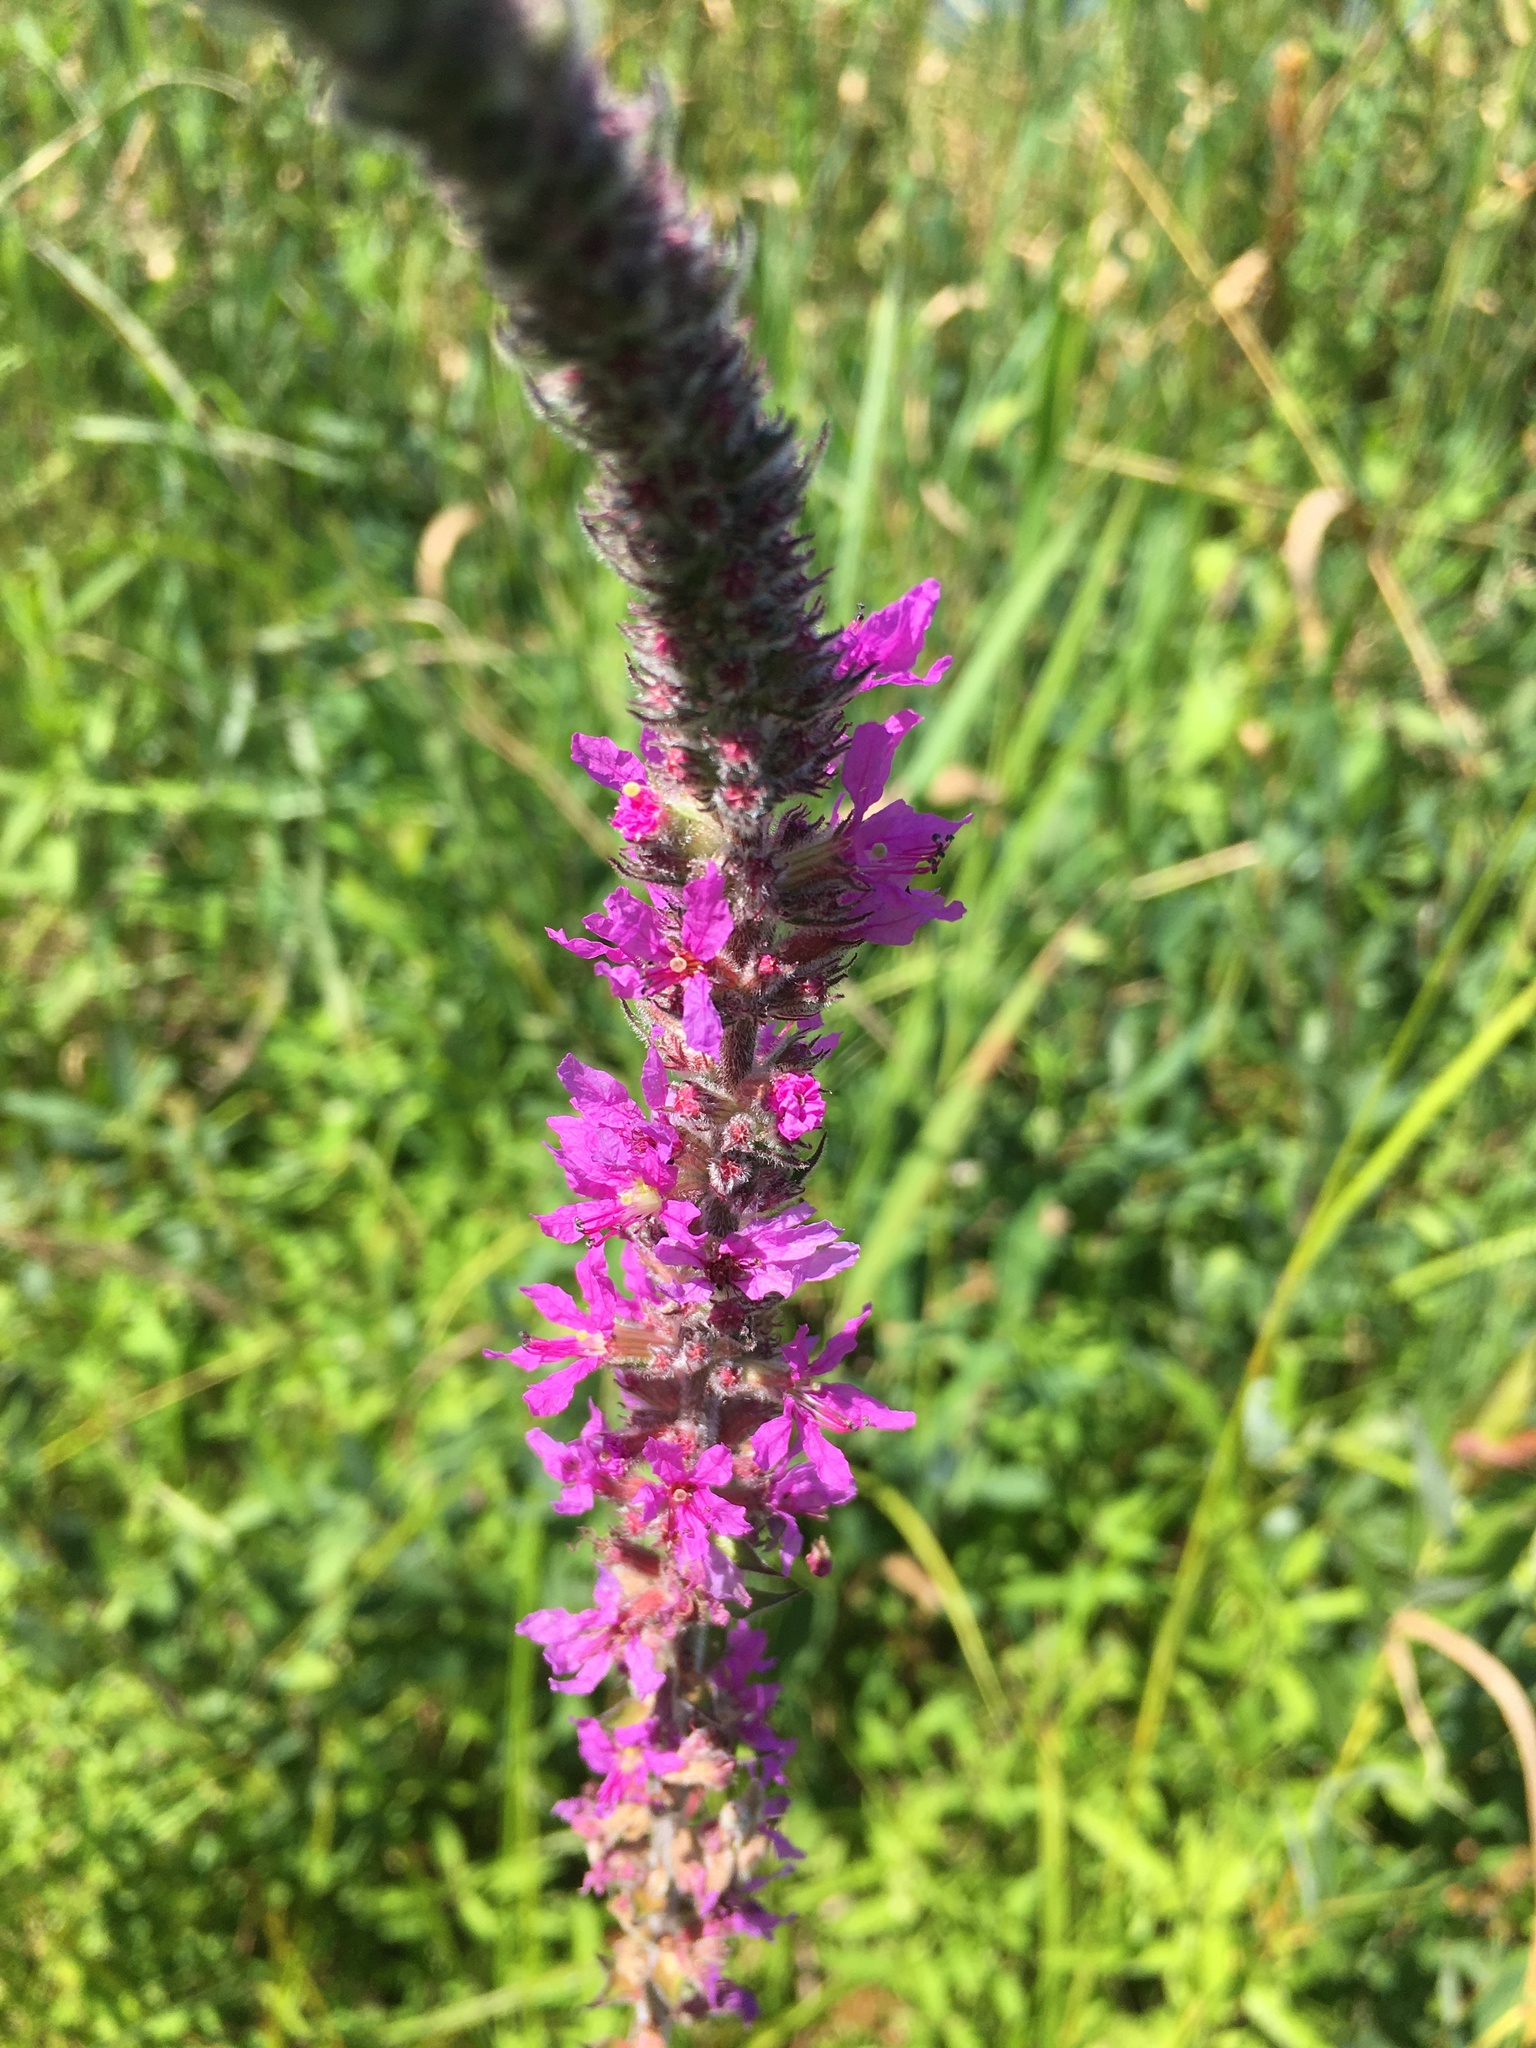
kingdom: Plantae
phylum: Tracheophyta
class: Magnoliopsida
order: Myrtales
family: Lythraceae
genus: Lythrum
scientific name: Lythrum salicaria
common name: Purple loosestrife
